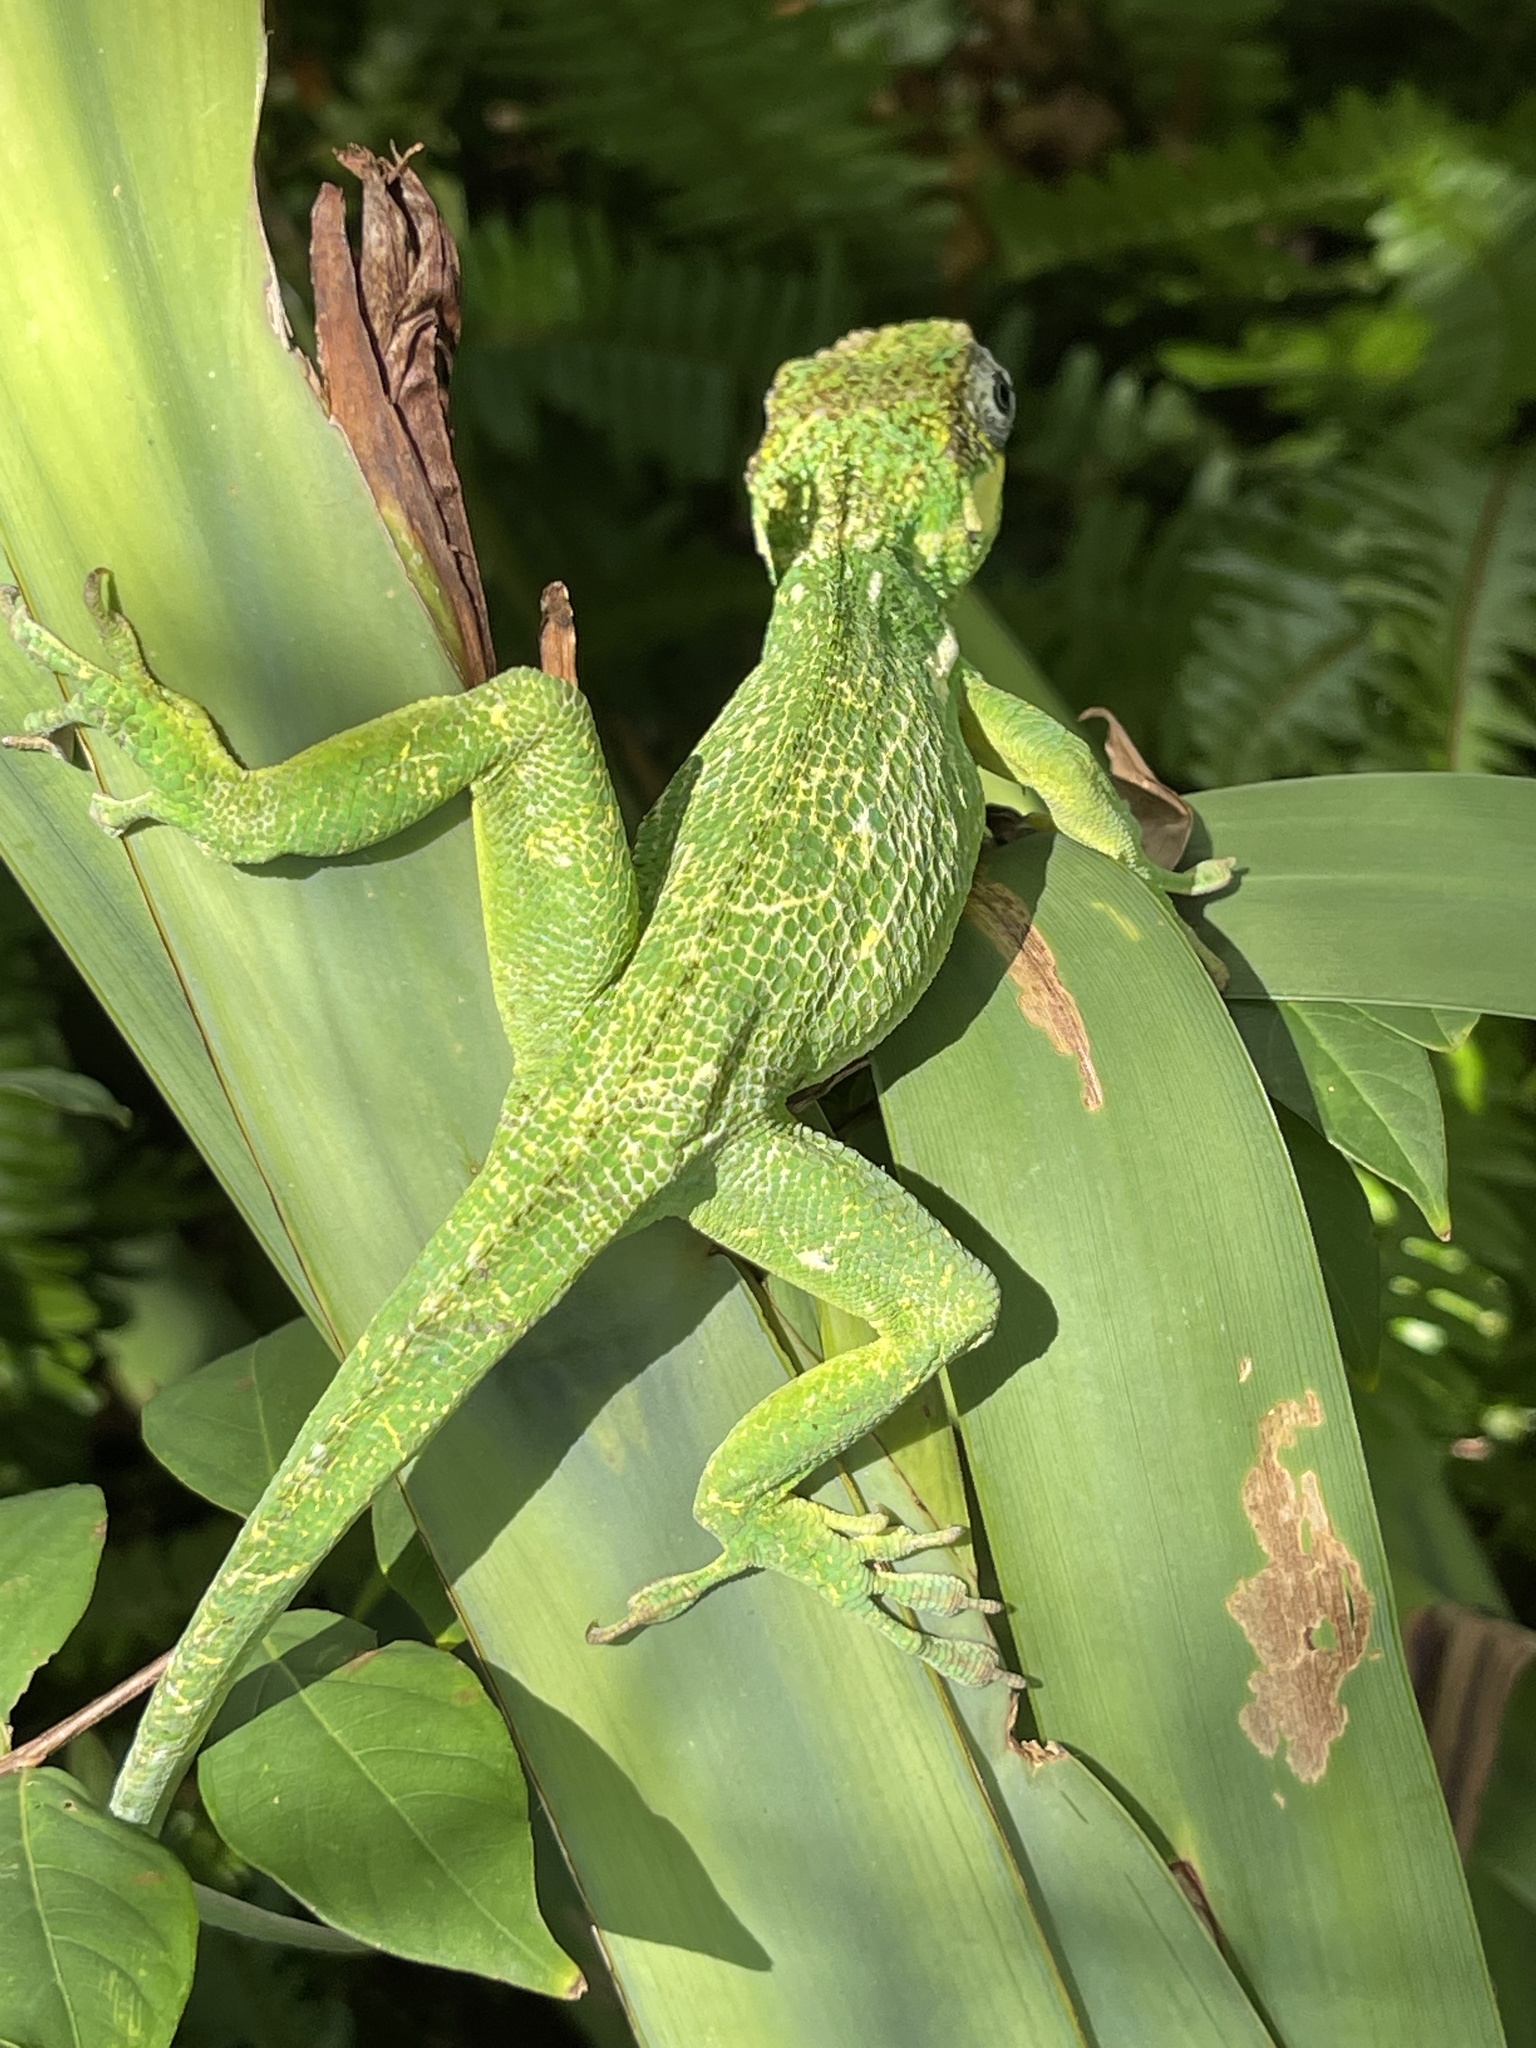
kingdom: Animalia
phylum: Chordata
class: Squamata
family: Dactyloidae
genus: Anolis
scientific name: Anolis equestris
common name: Knight anole
